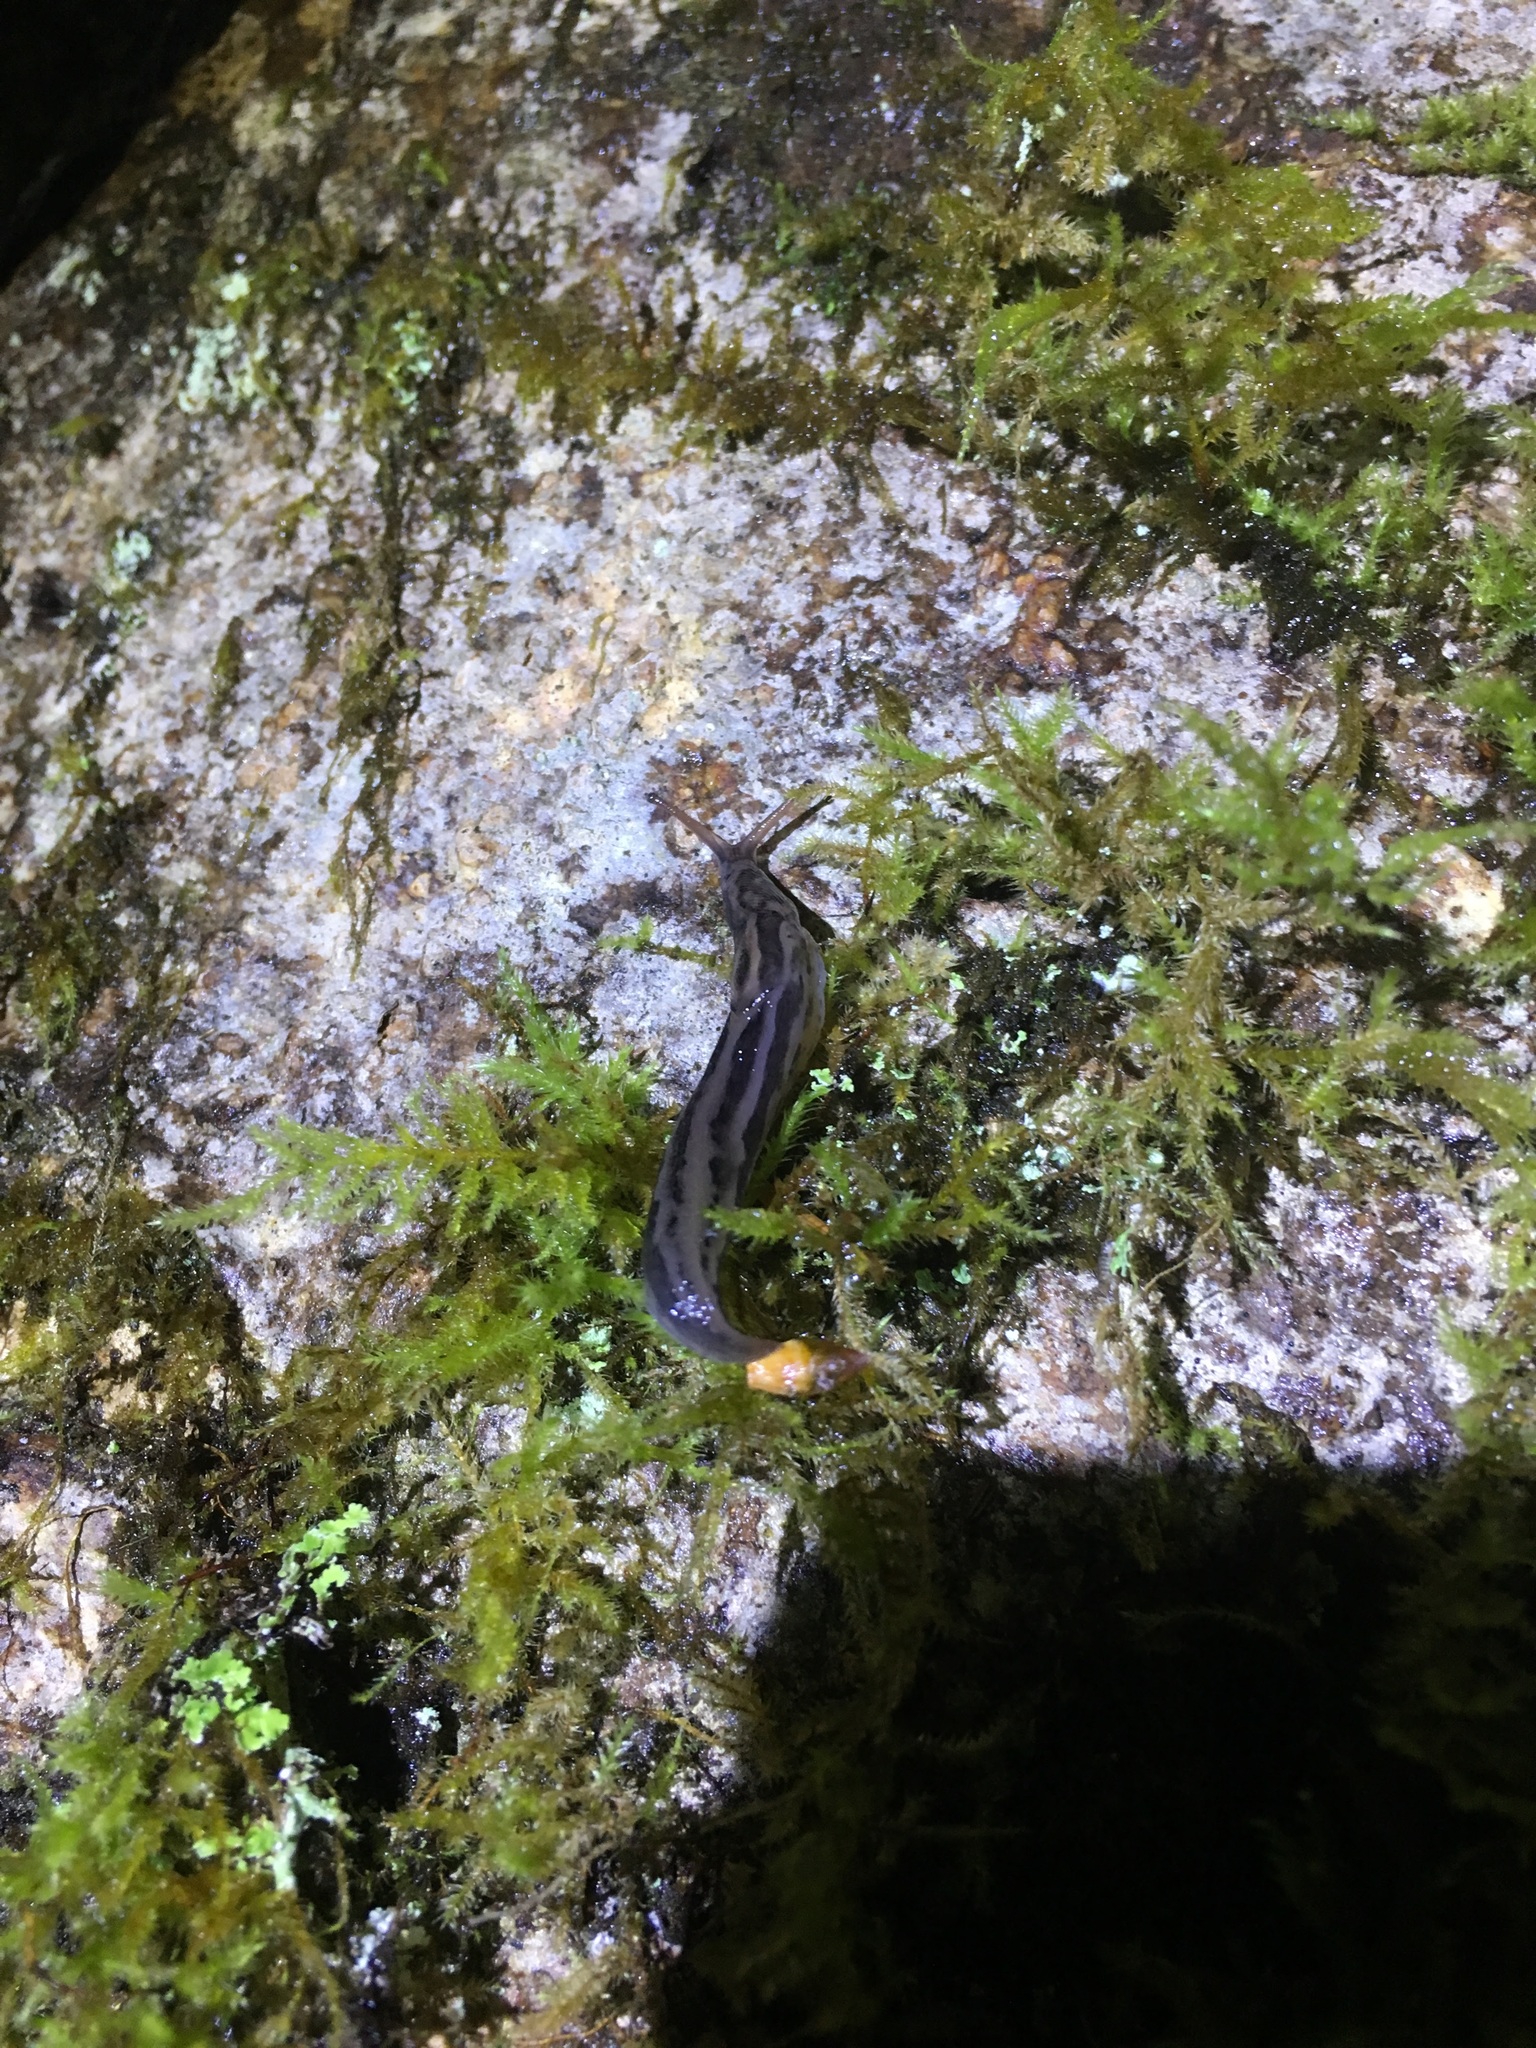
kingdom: Animalia
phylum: Mollusca
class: Gastropoda
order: Stylommatophora
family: Limacidae
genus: Limax
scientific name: Limax maximus
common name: Great grey slug
